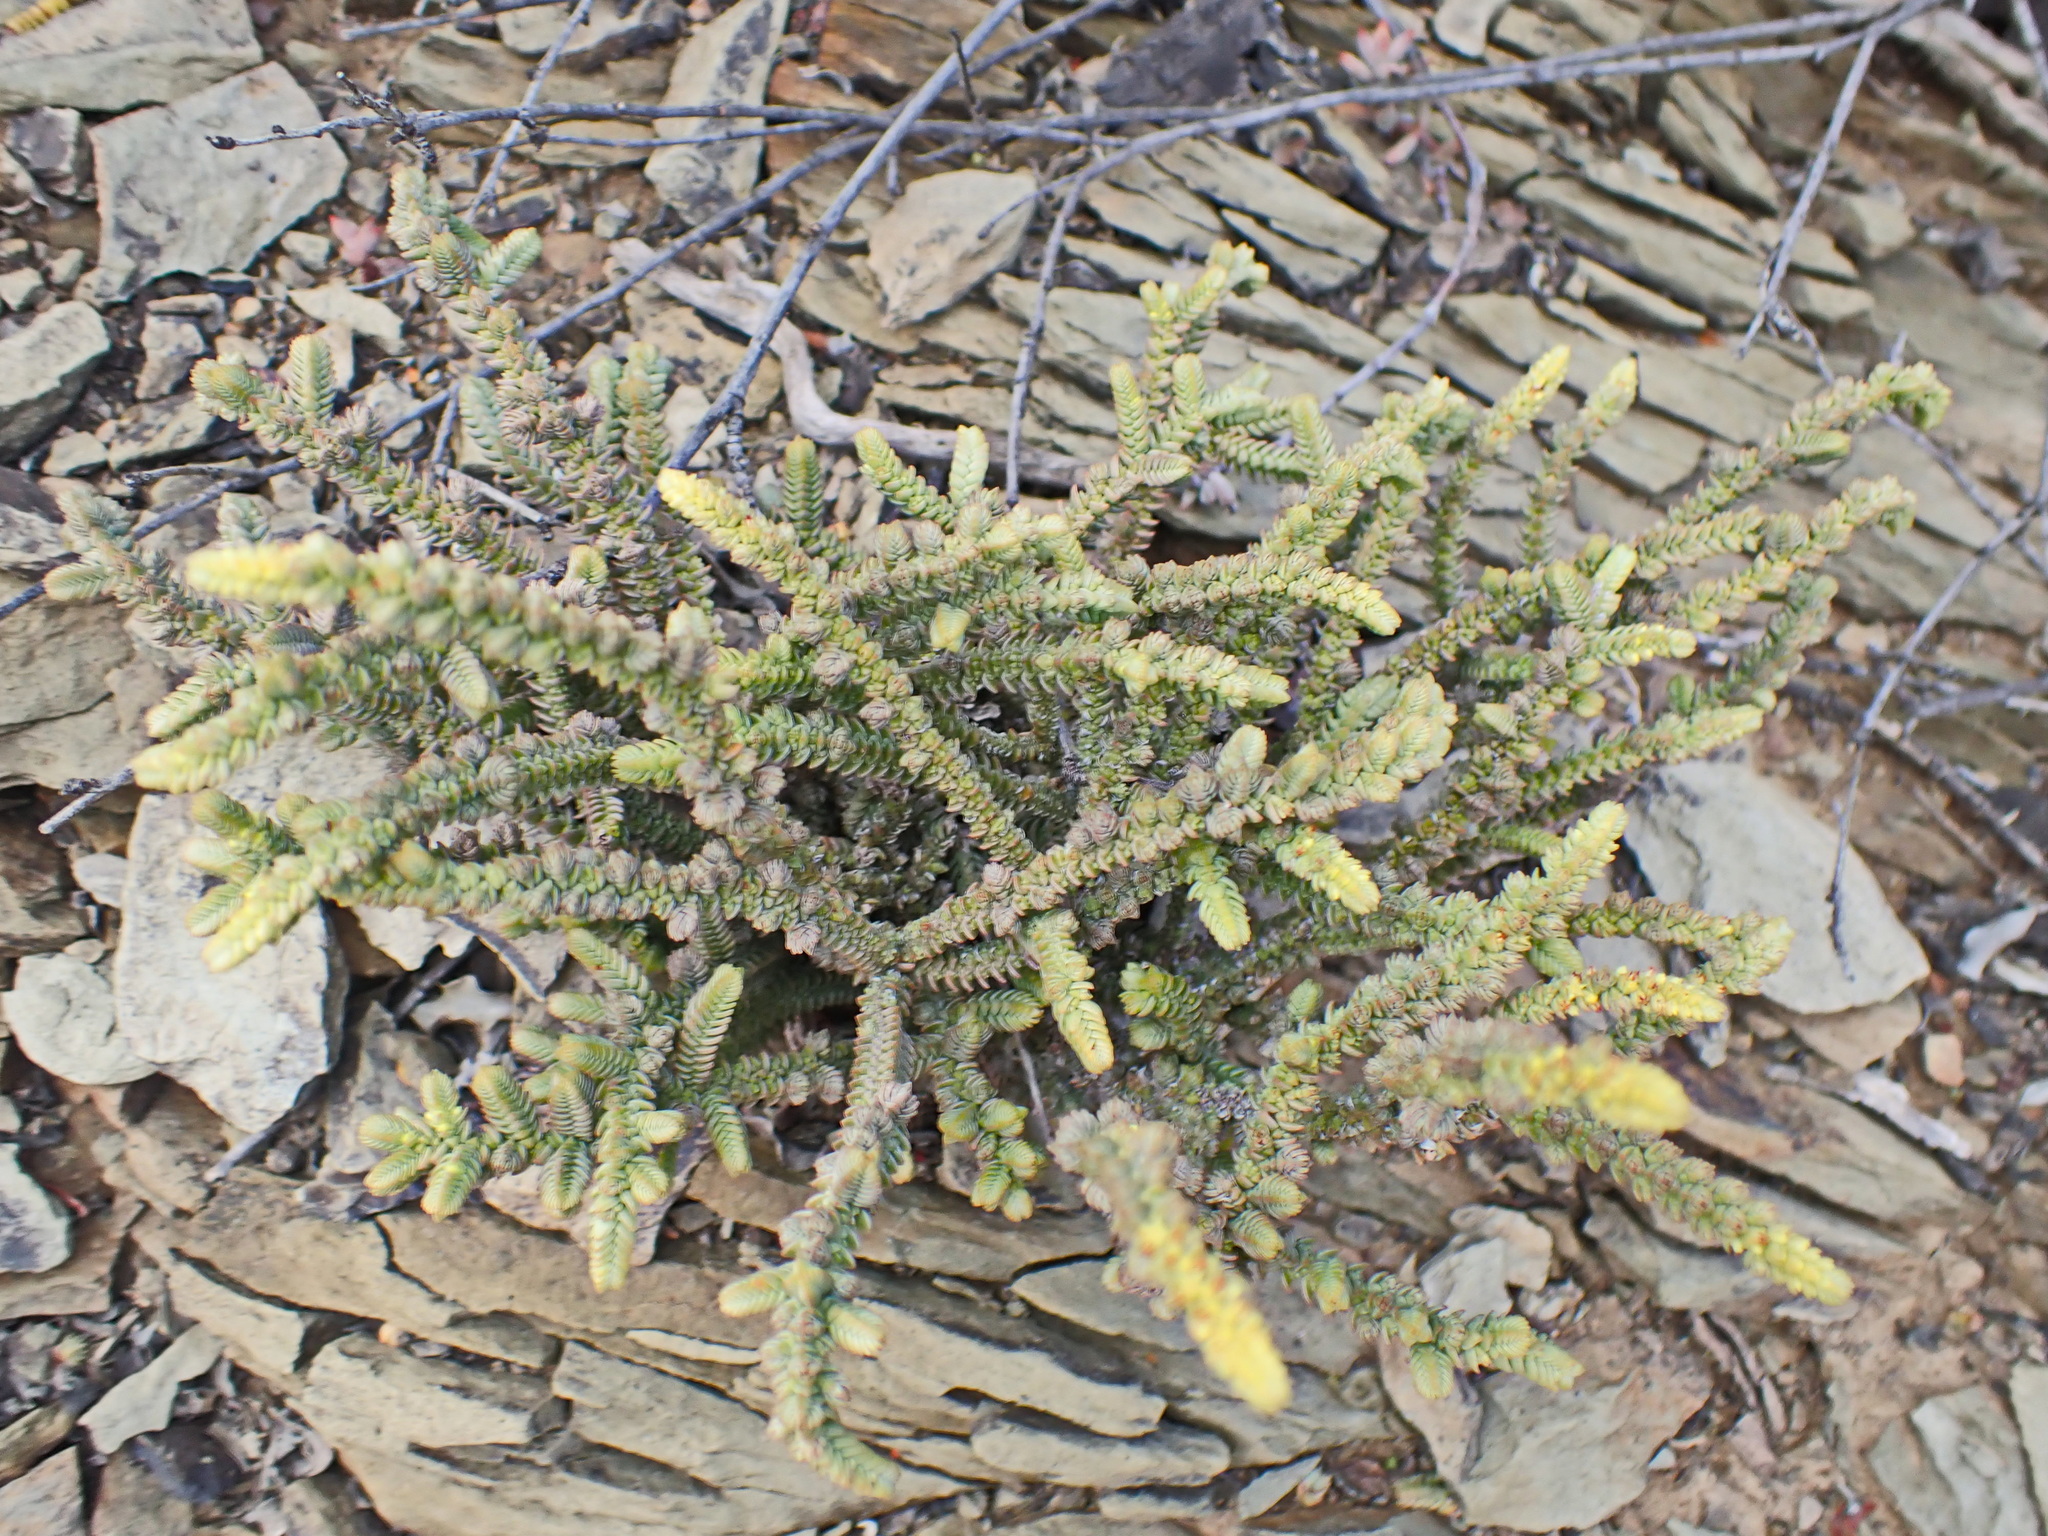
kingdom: Plantae
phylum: Tracheophyta
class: Magnoliopsida
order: Saxifragales
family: Crassulaceae
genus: Crassula
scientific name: Crassula muscosa
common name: Toy-cypress
